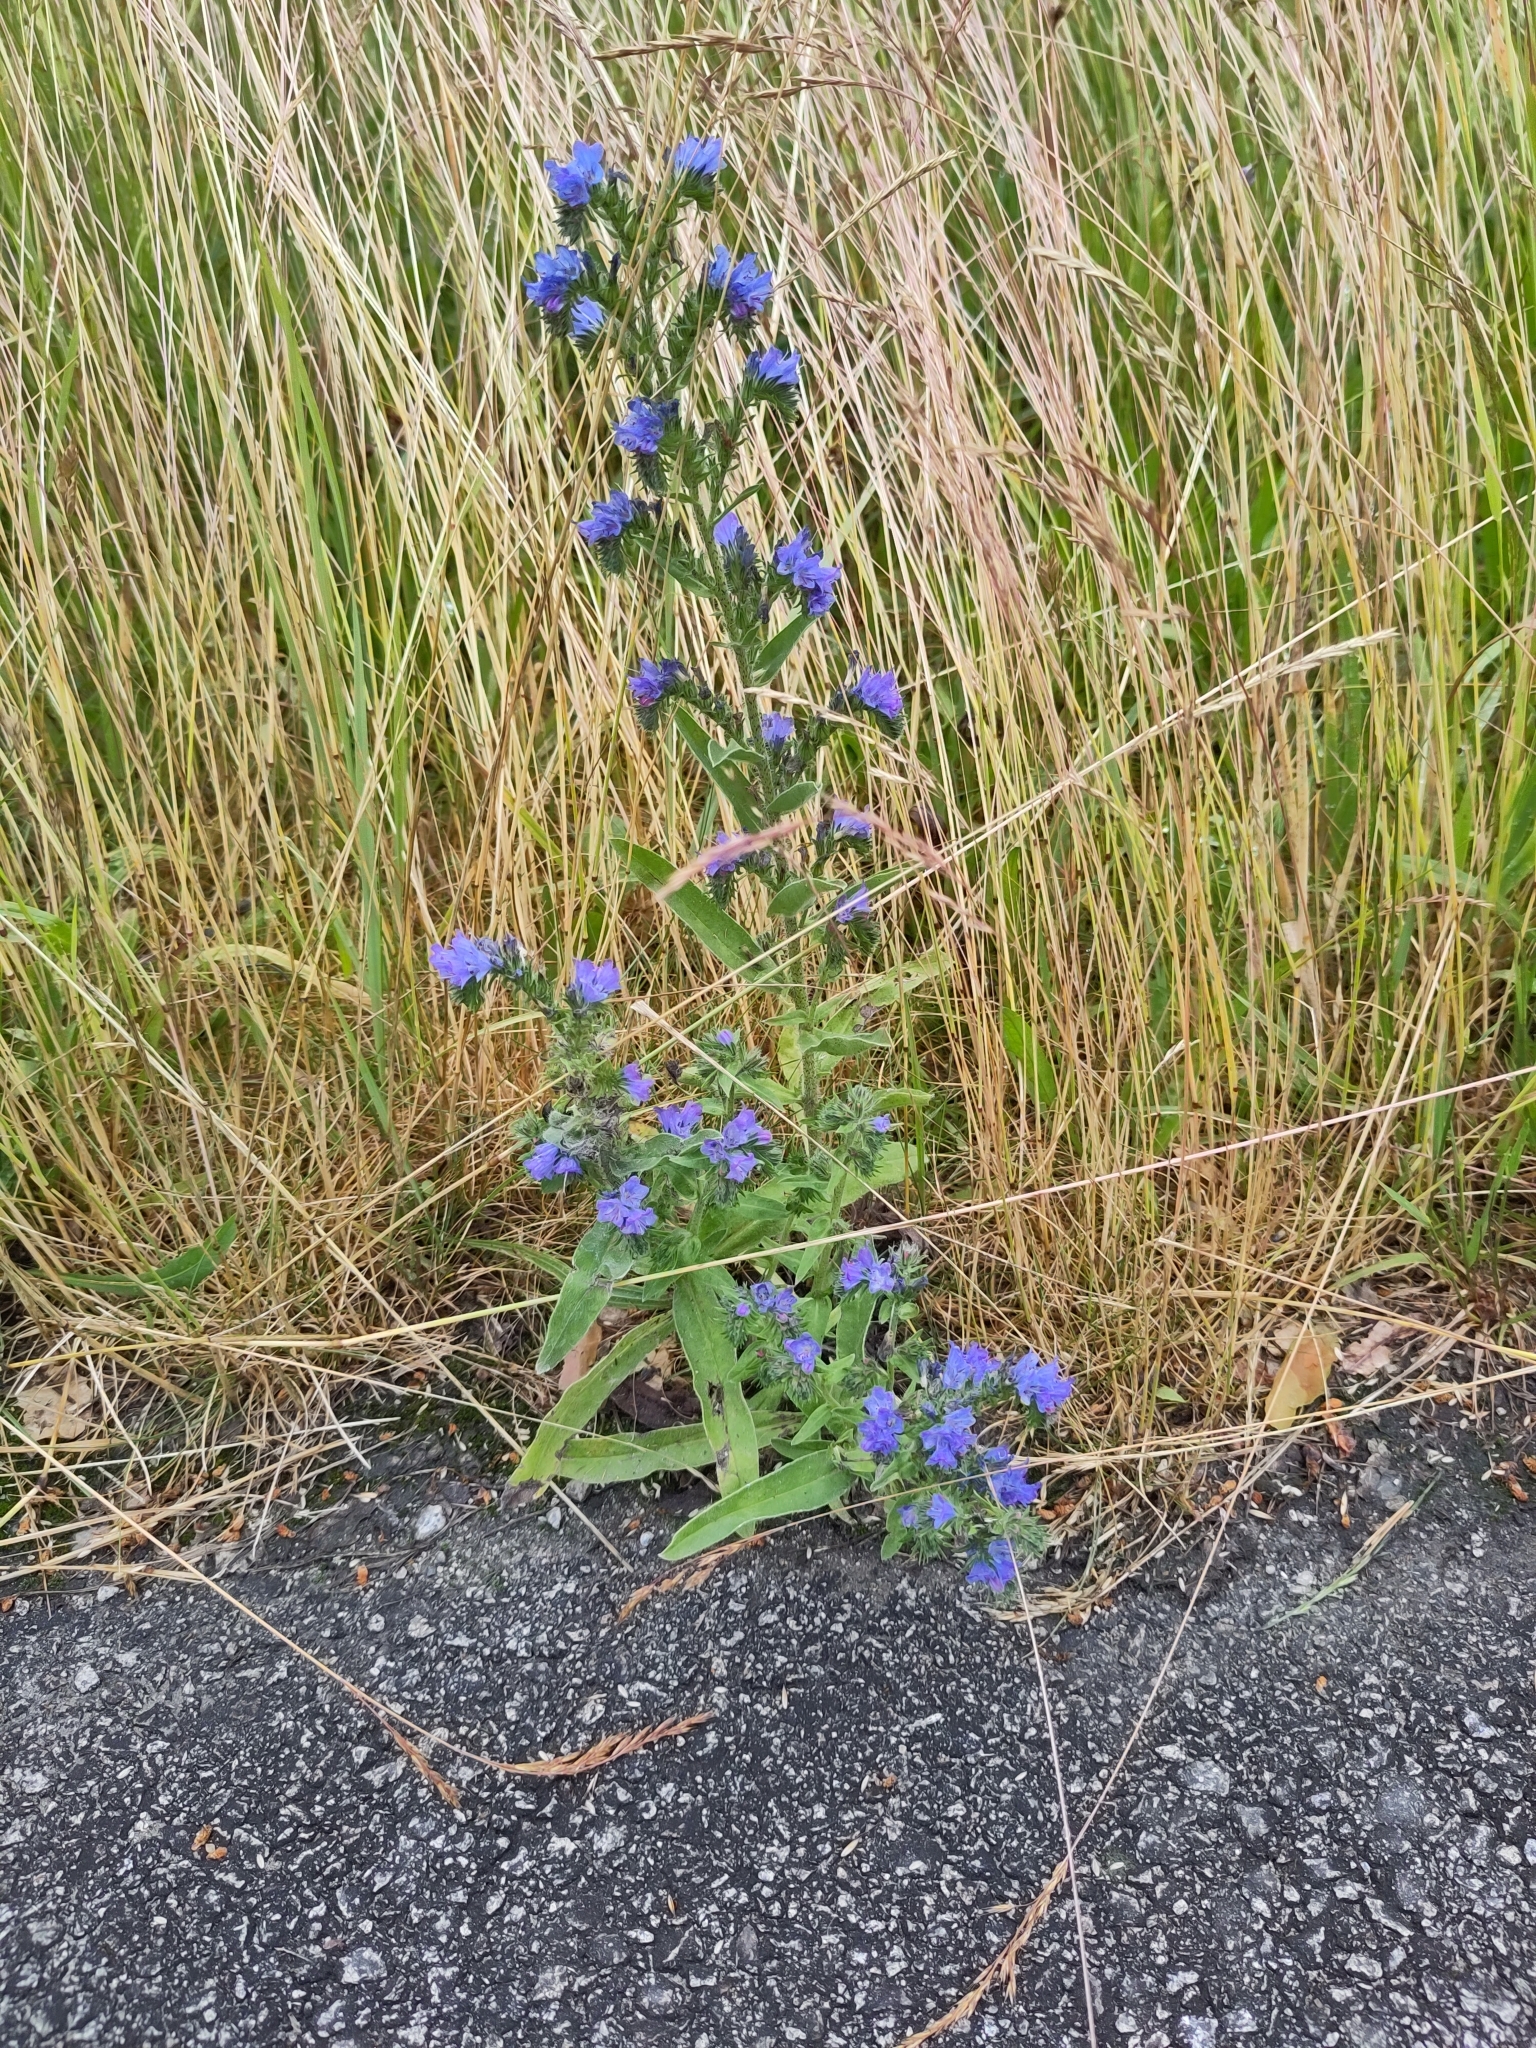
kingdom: Plantae
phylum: Tracheophyta
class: Magnoliopsida
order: Boraginales
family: Boraginaceae
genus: Echium
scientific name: Echium vulgare
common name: Common viper's bugloss
